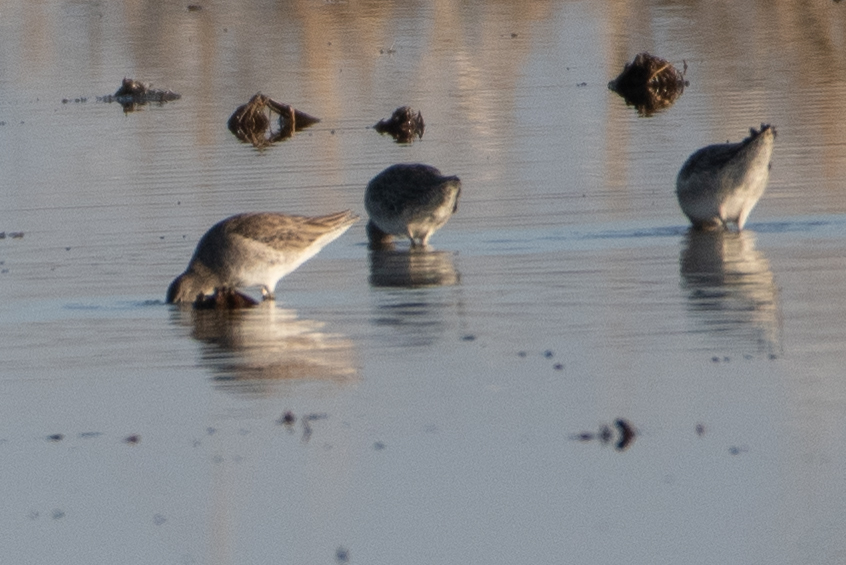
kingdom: Animalia
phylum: Chordata
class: Aves
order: Charadriiformes
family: Scolopacidae
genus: Limnodromus
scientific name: Limnodromus scolopaceus
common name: Long-billed dowitcher
